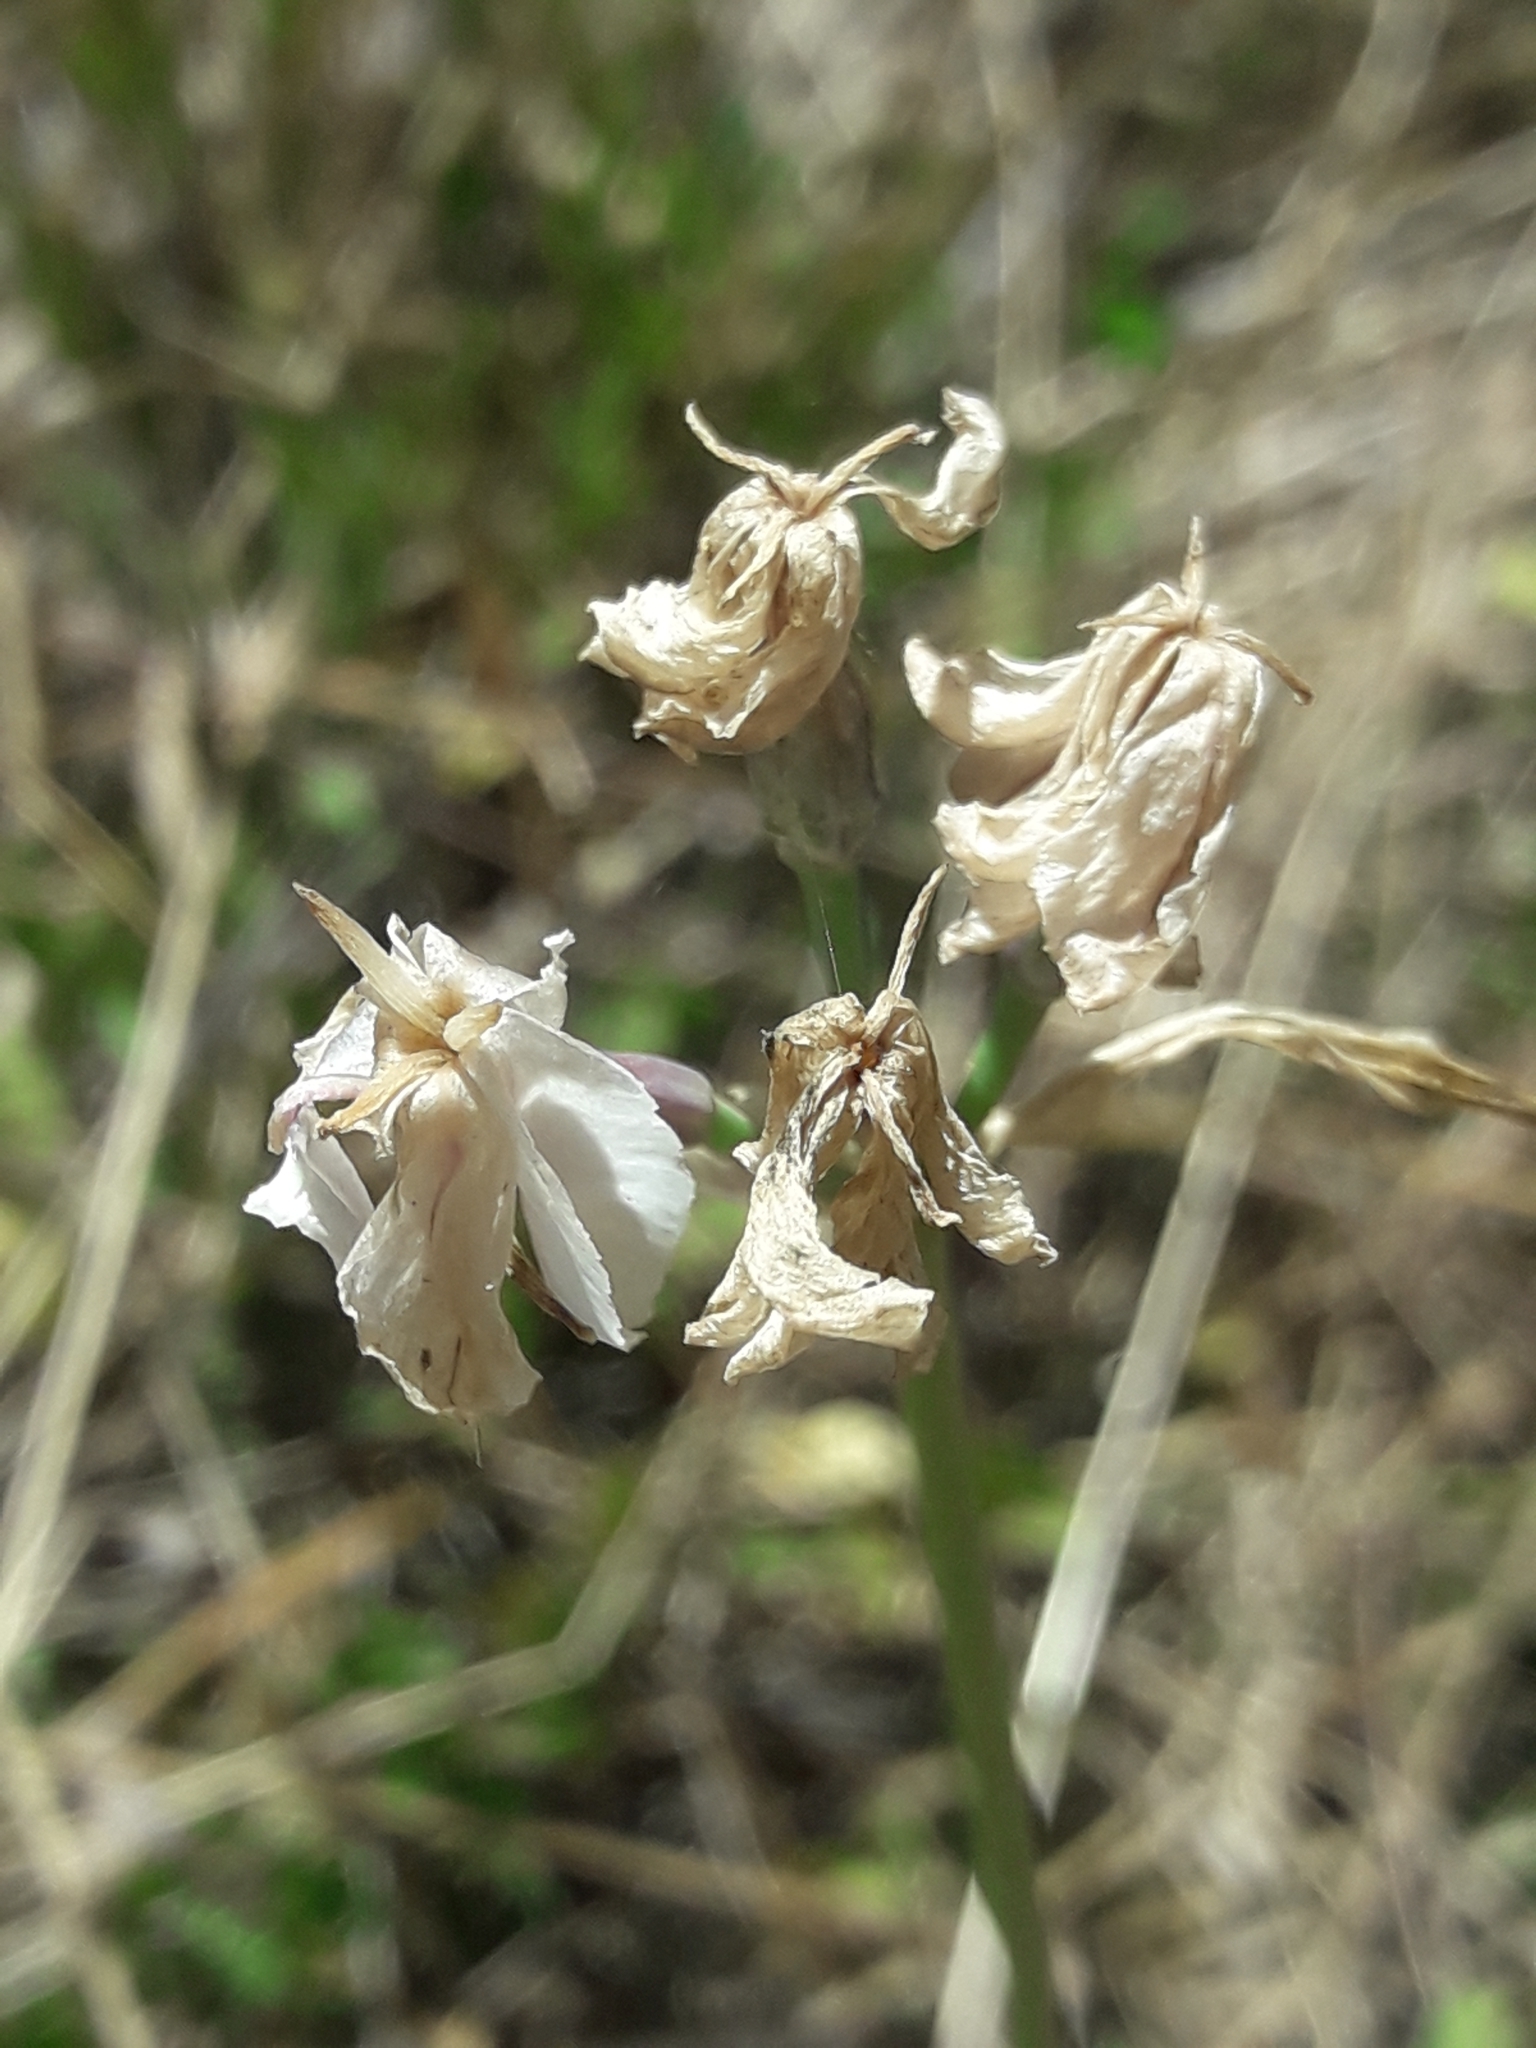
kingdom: Plantae
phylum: Tracheophyta
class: Liliopsida
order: Asparagales
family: Amaryllidaceae
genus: Leucocoryne
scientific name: Leucocoryne foetida
